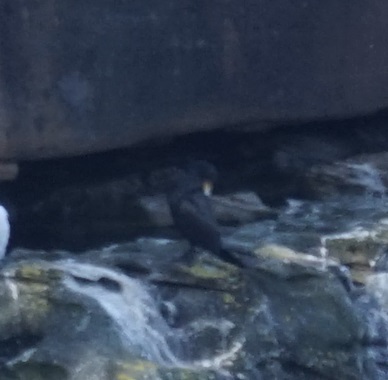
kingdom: Animalia
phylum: Chordata
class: Aves
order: Suliformes
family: Phalacrocoracidae
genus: Phalacrocorax
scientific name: Phalacrocorax carbo
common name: Great cormorant
